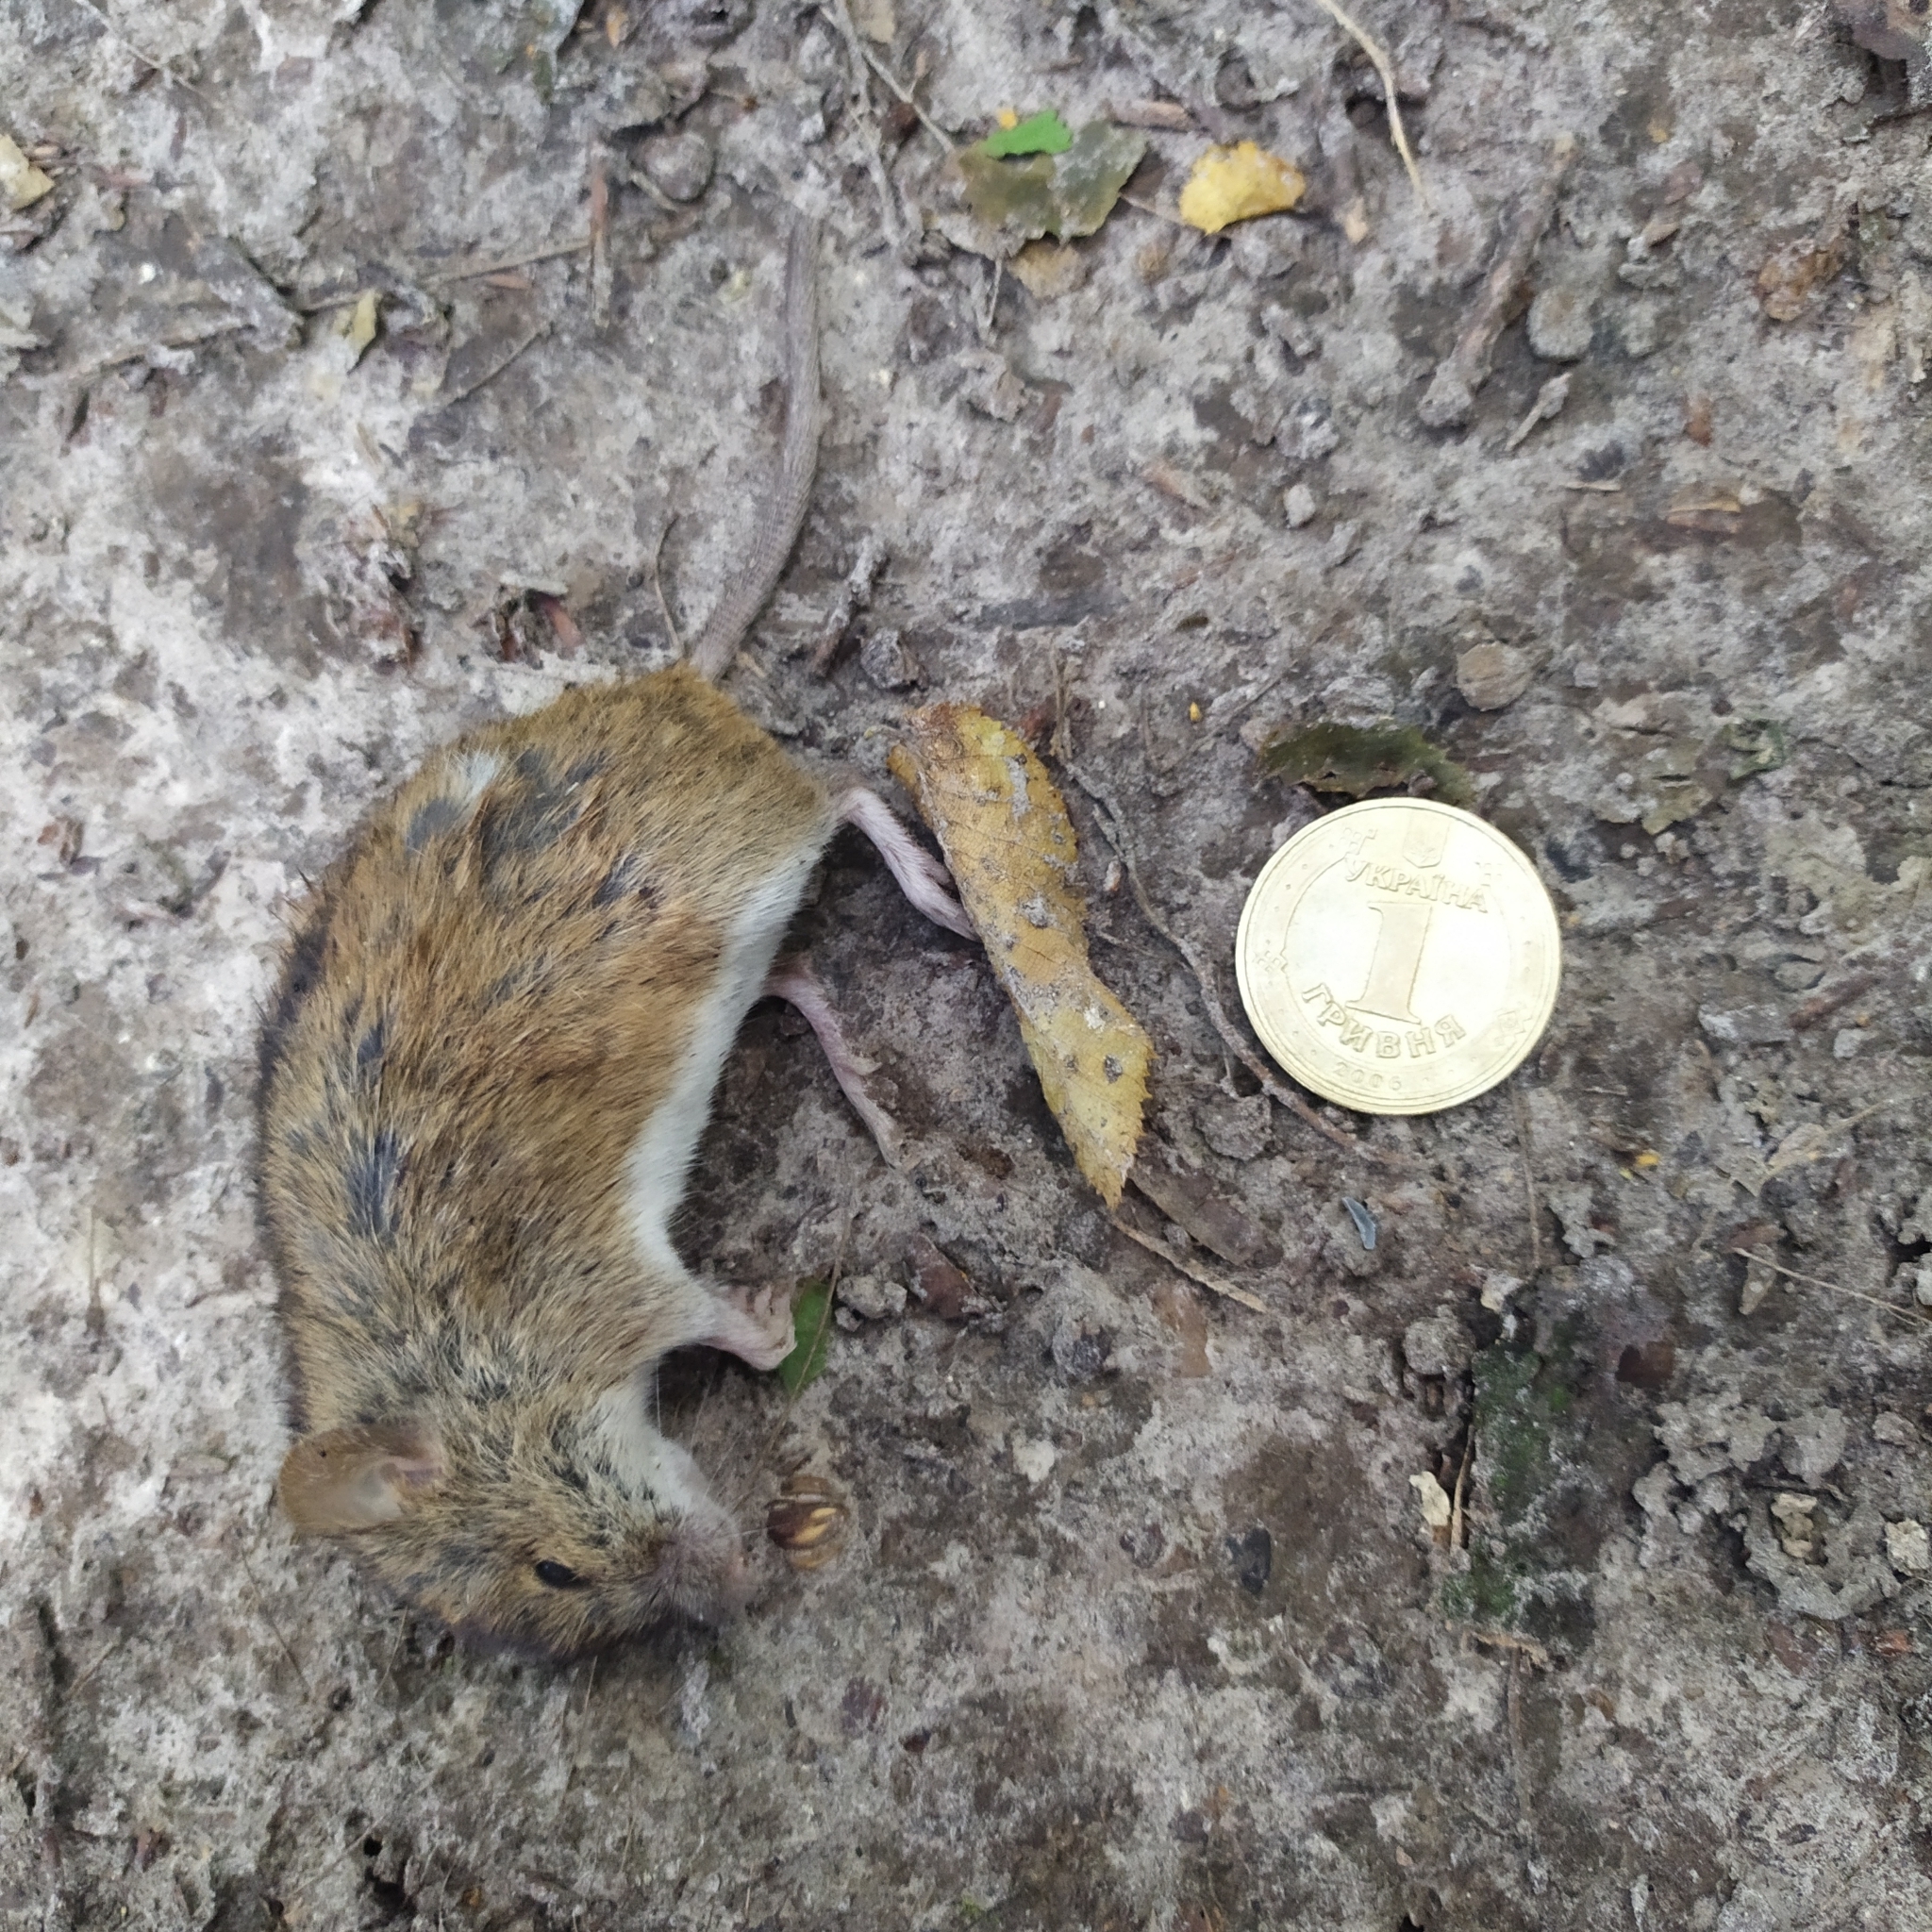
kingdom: Animalia
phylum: Chordata
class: Mammalia
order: Rodentia
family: Muridae
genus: Apodemus
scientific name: Apodemus agrarius
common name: Striped field mouse
